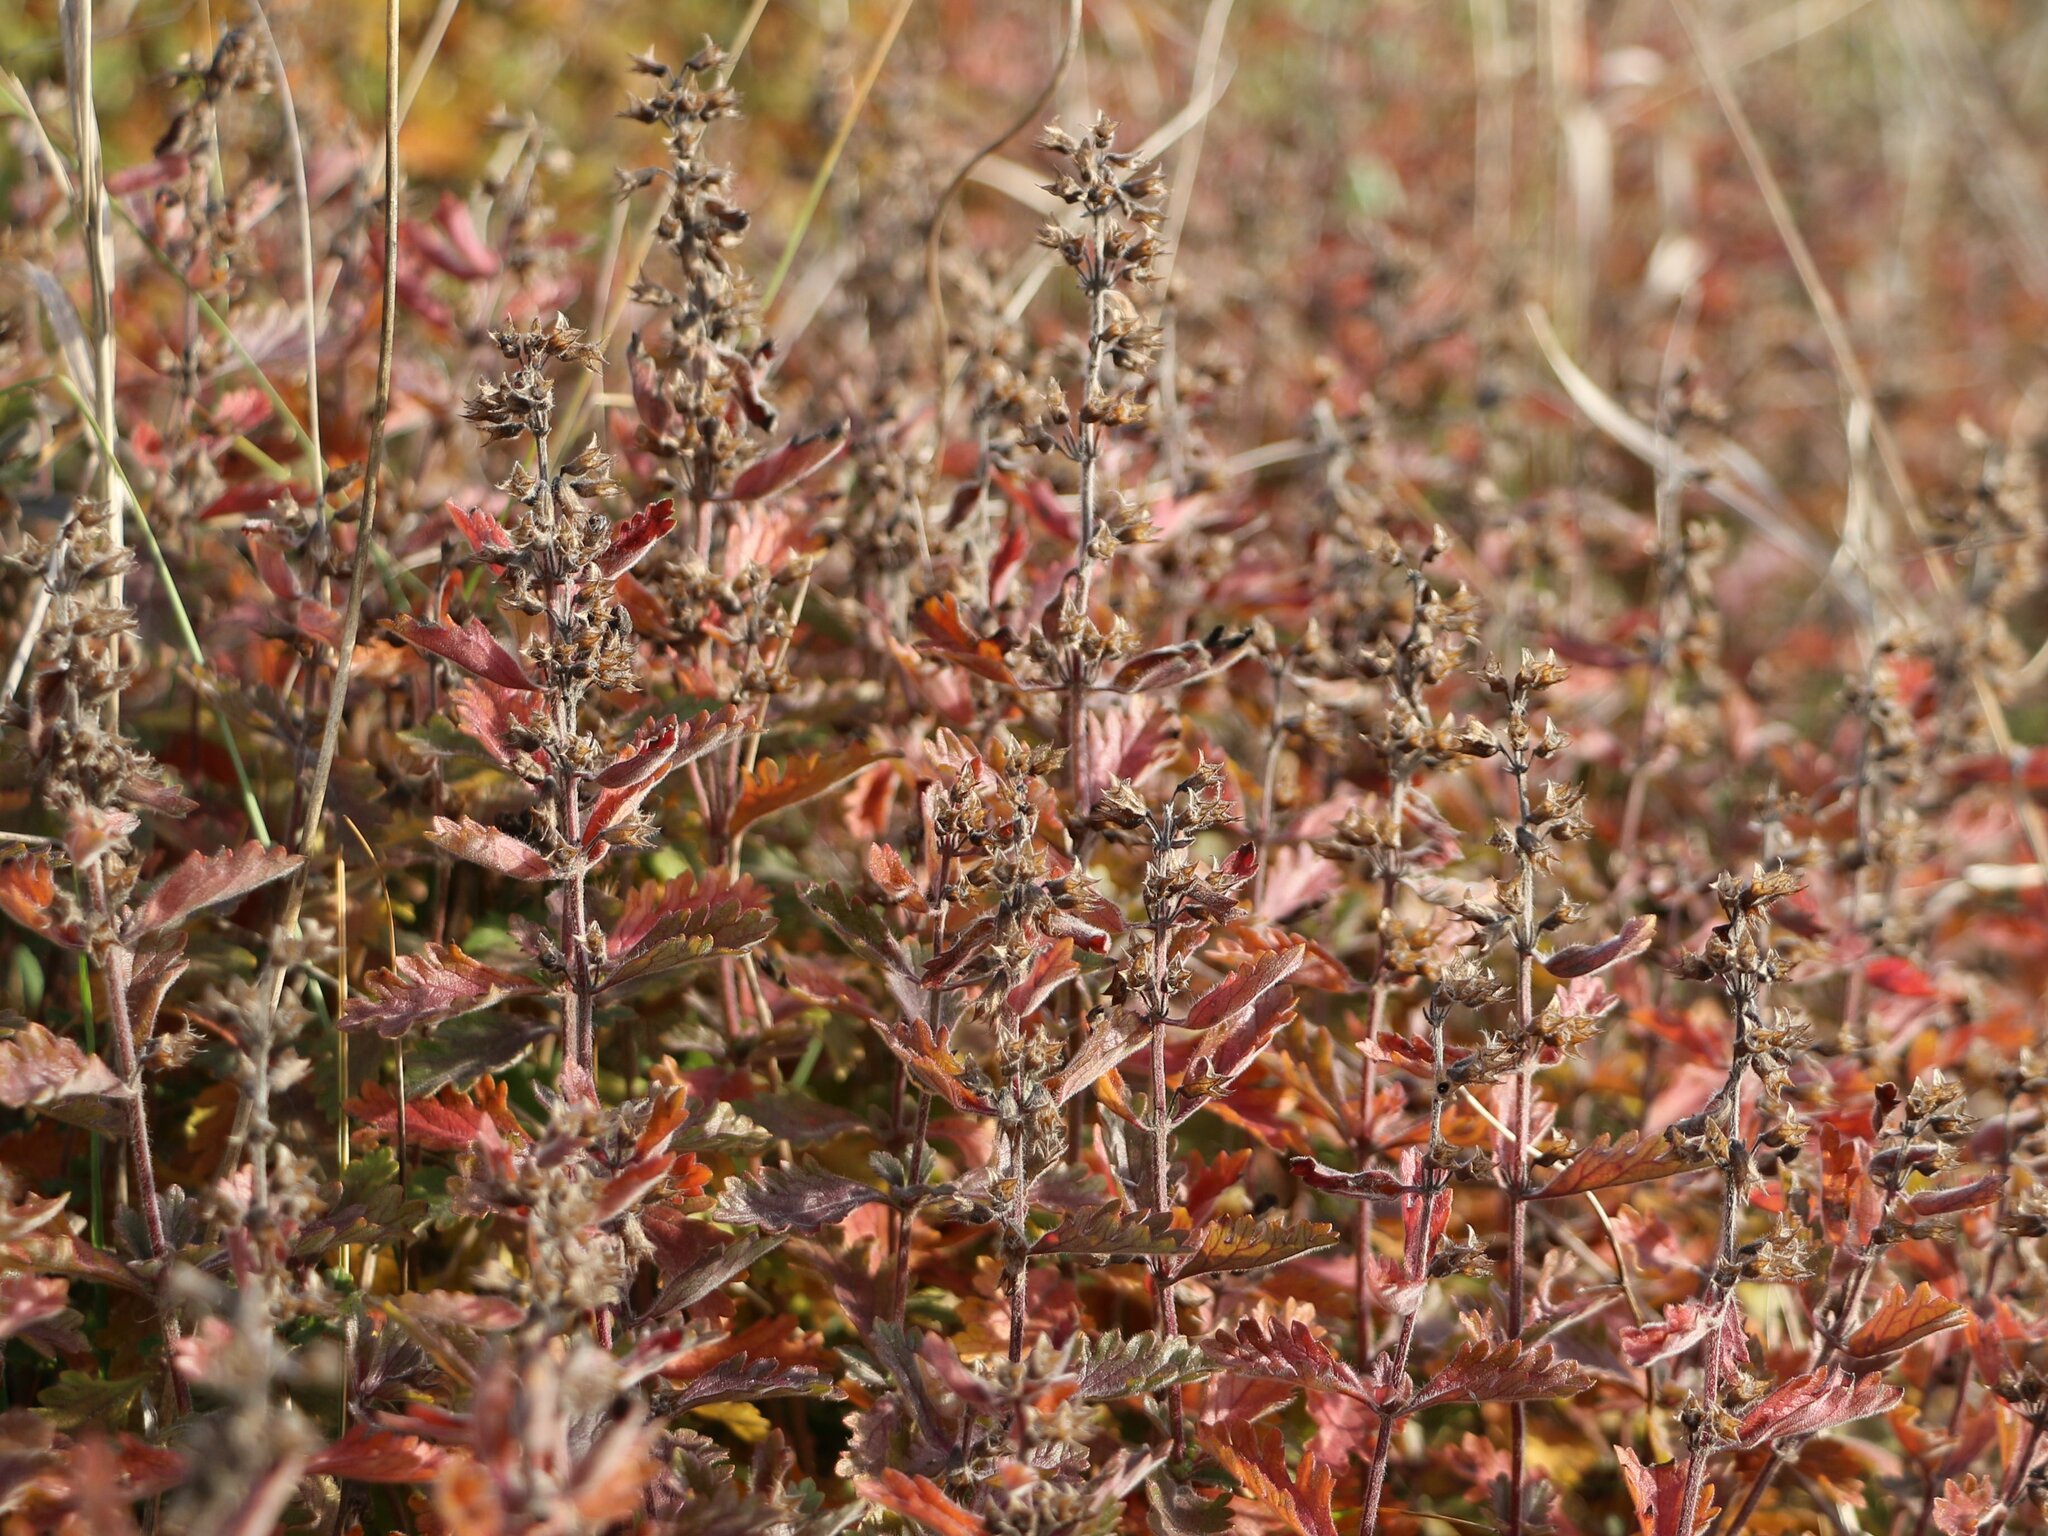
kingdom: Plantae
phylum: Tracheophyta
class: Magnoliopsida
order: Lamiales
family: Lamiaceae
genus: Teucrium
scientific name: Teucrium chamaedrys
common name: Wall germander
